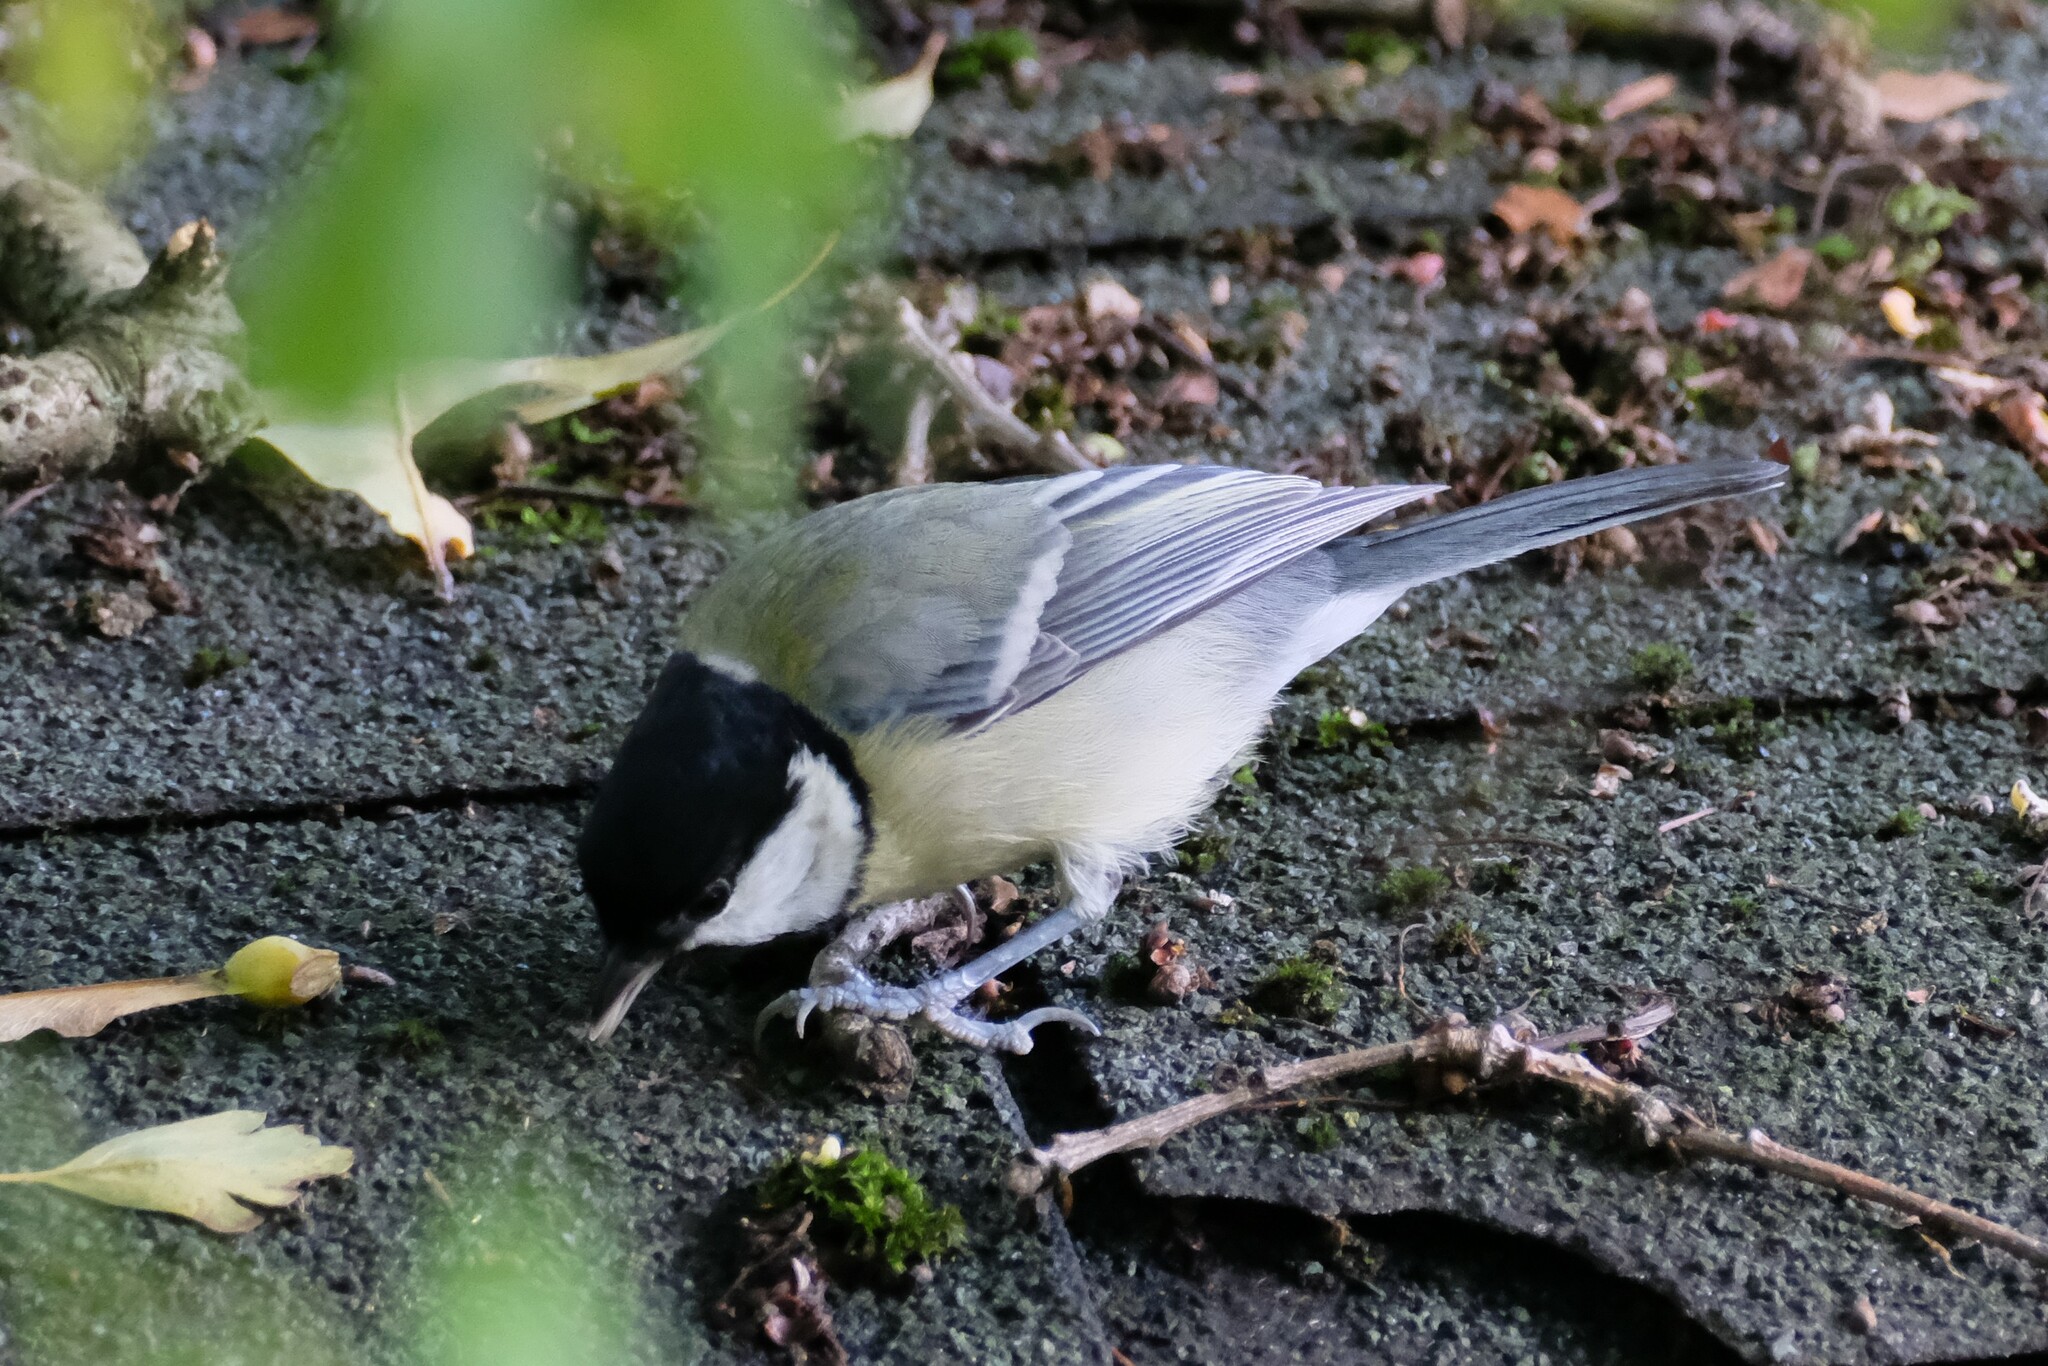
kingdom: Animalia
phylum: Chordata
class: Aves
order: Passeriformes
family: Paridae
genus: Parus
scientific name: Parus major
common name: Great tit
